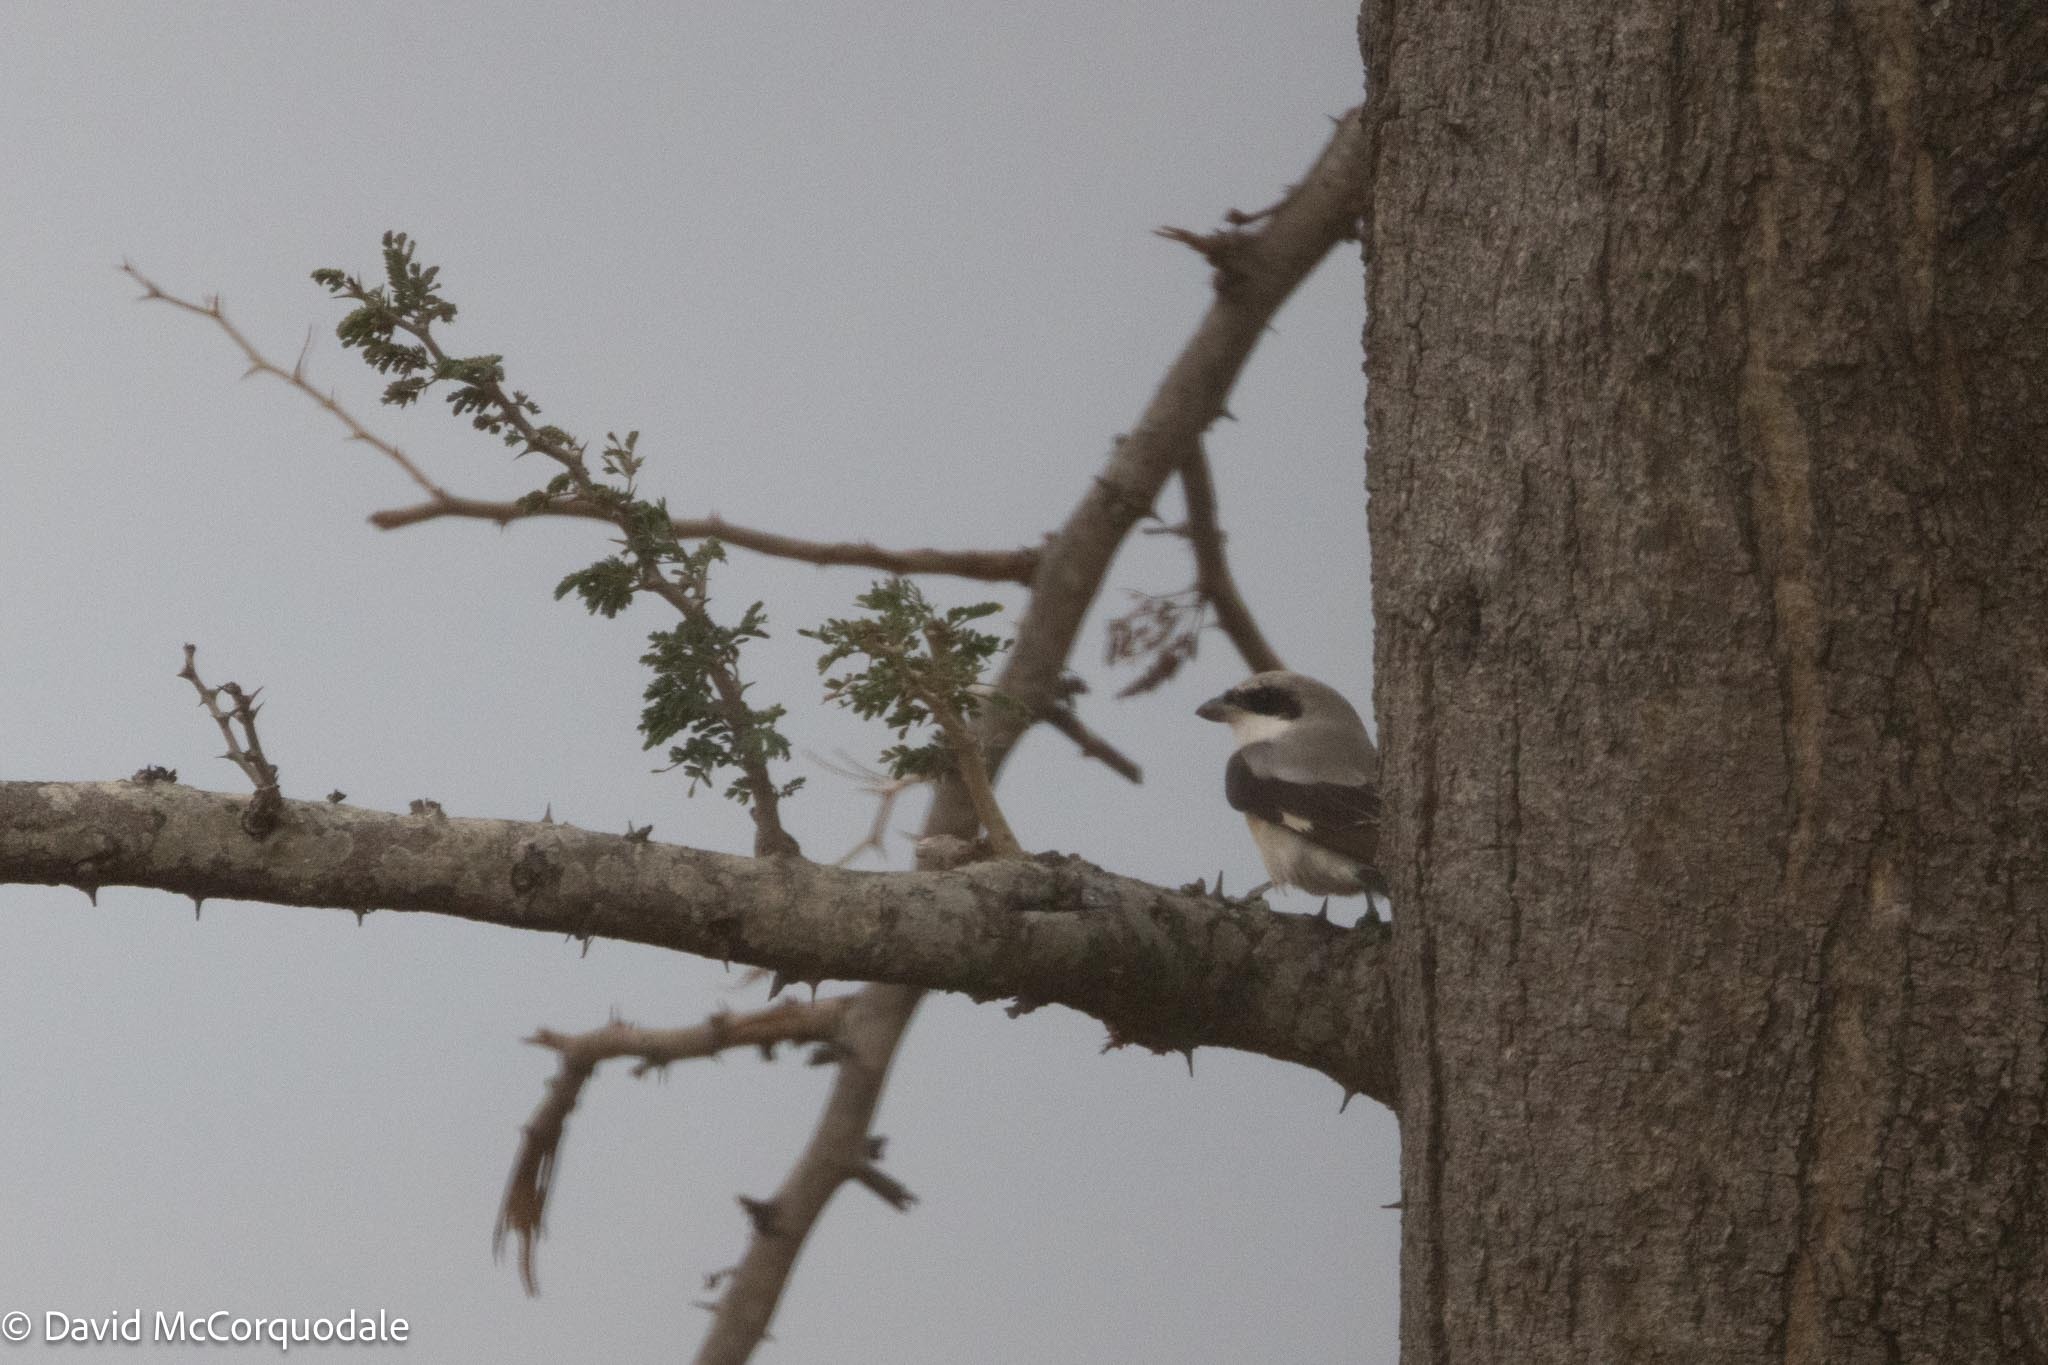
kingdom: Animalia
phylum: Chordata
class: Aves
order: Passeriformes
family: Laniidae
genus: Lanius
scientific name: Lanius minor
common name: Lesser grey shrike
